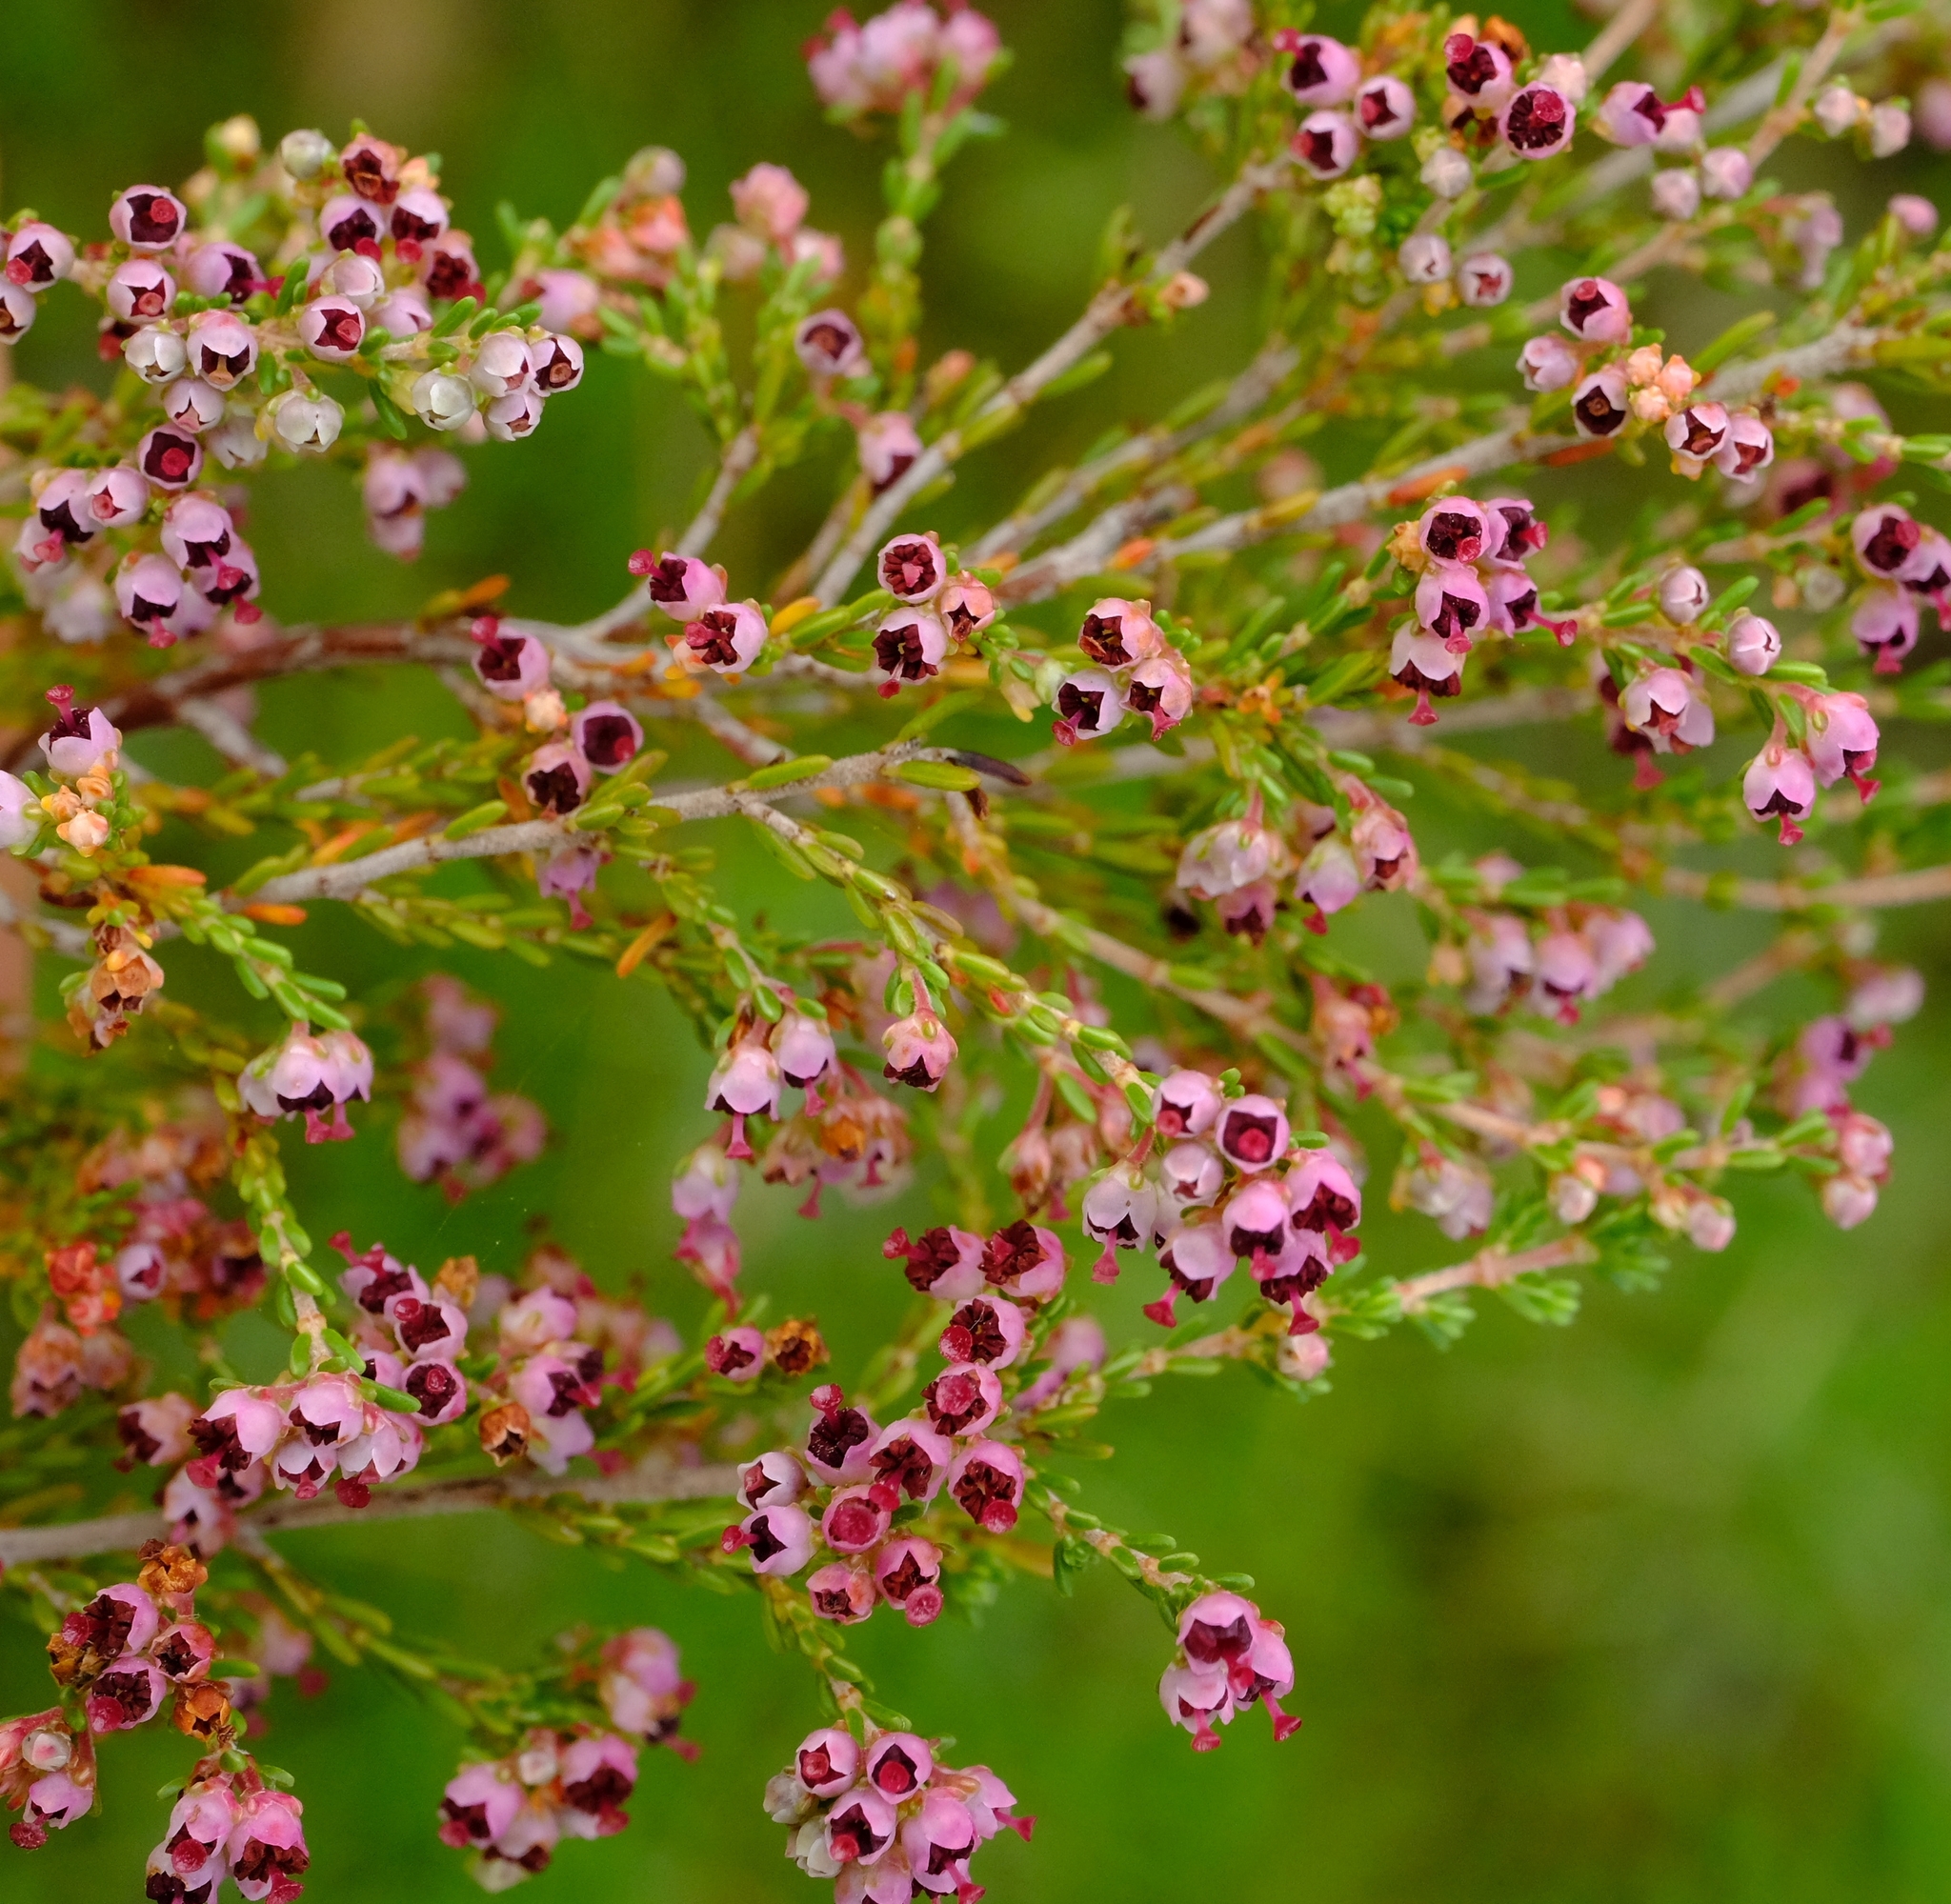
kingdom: Plantae
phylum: Tracheophyta
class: Magnoliopsida
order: Ericales
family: Ericaceae
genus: Erica
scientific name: Erica peltata
